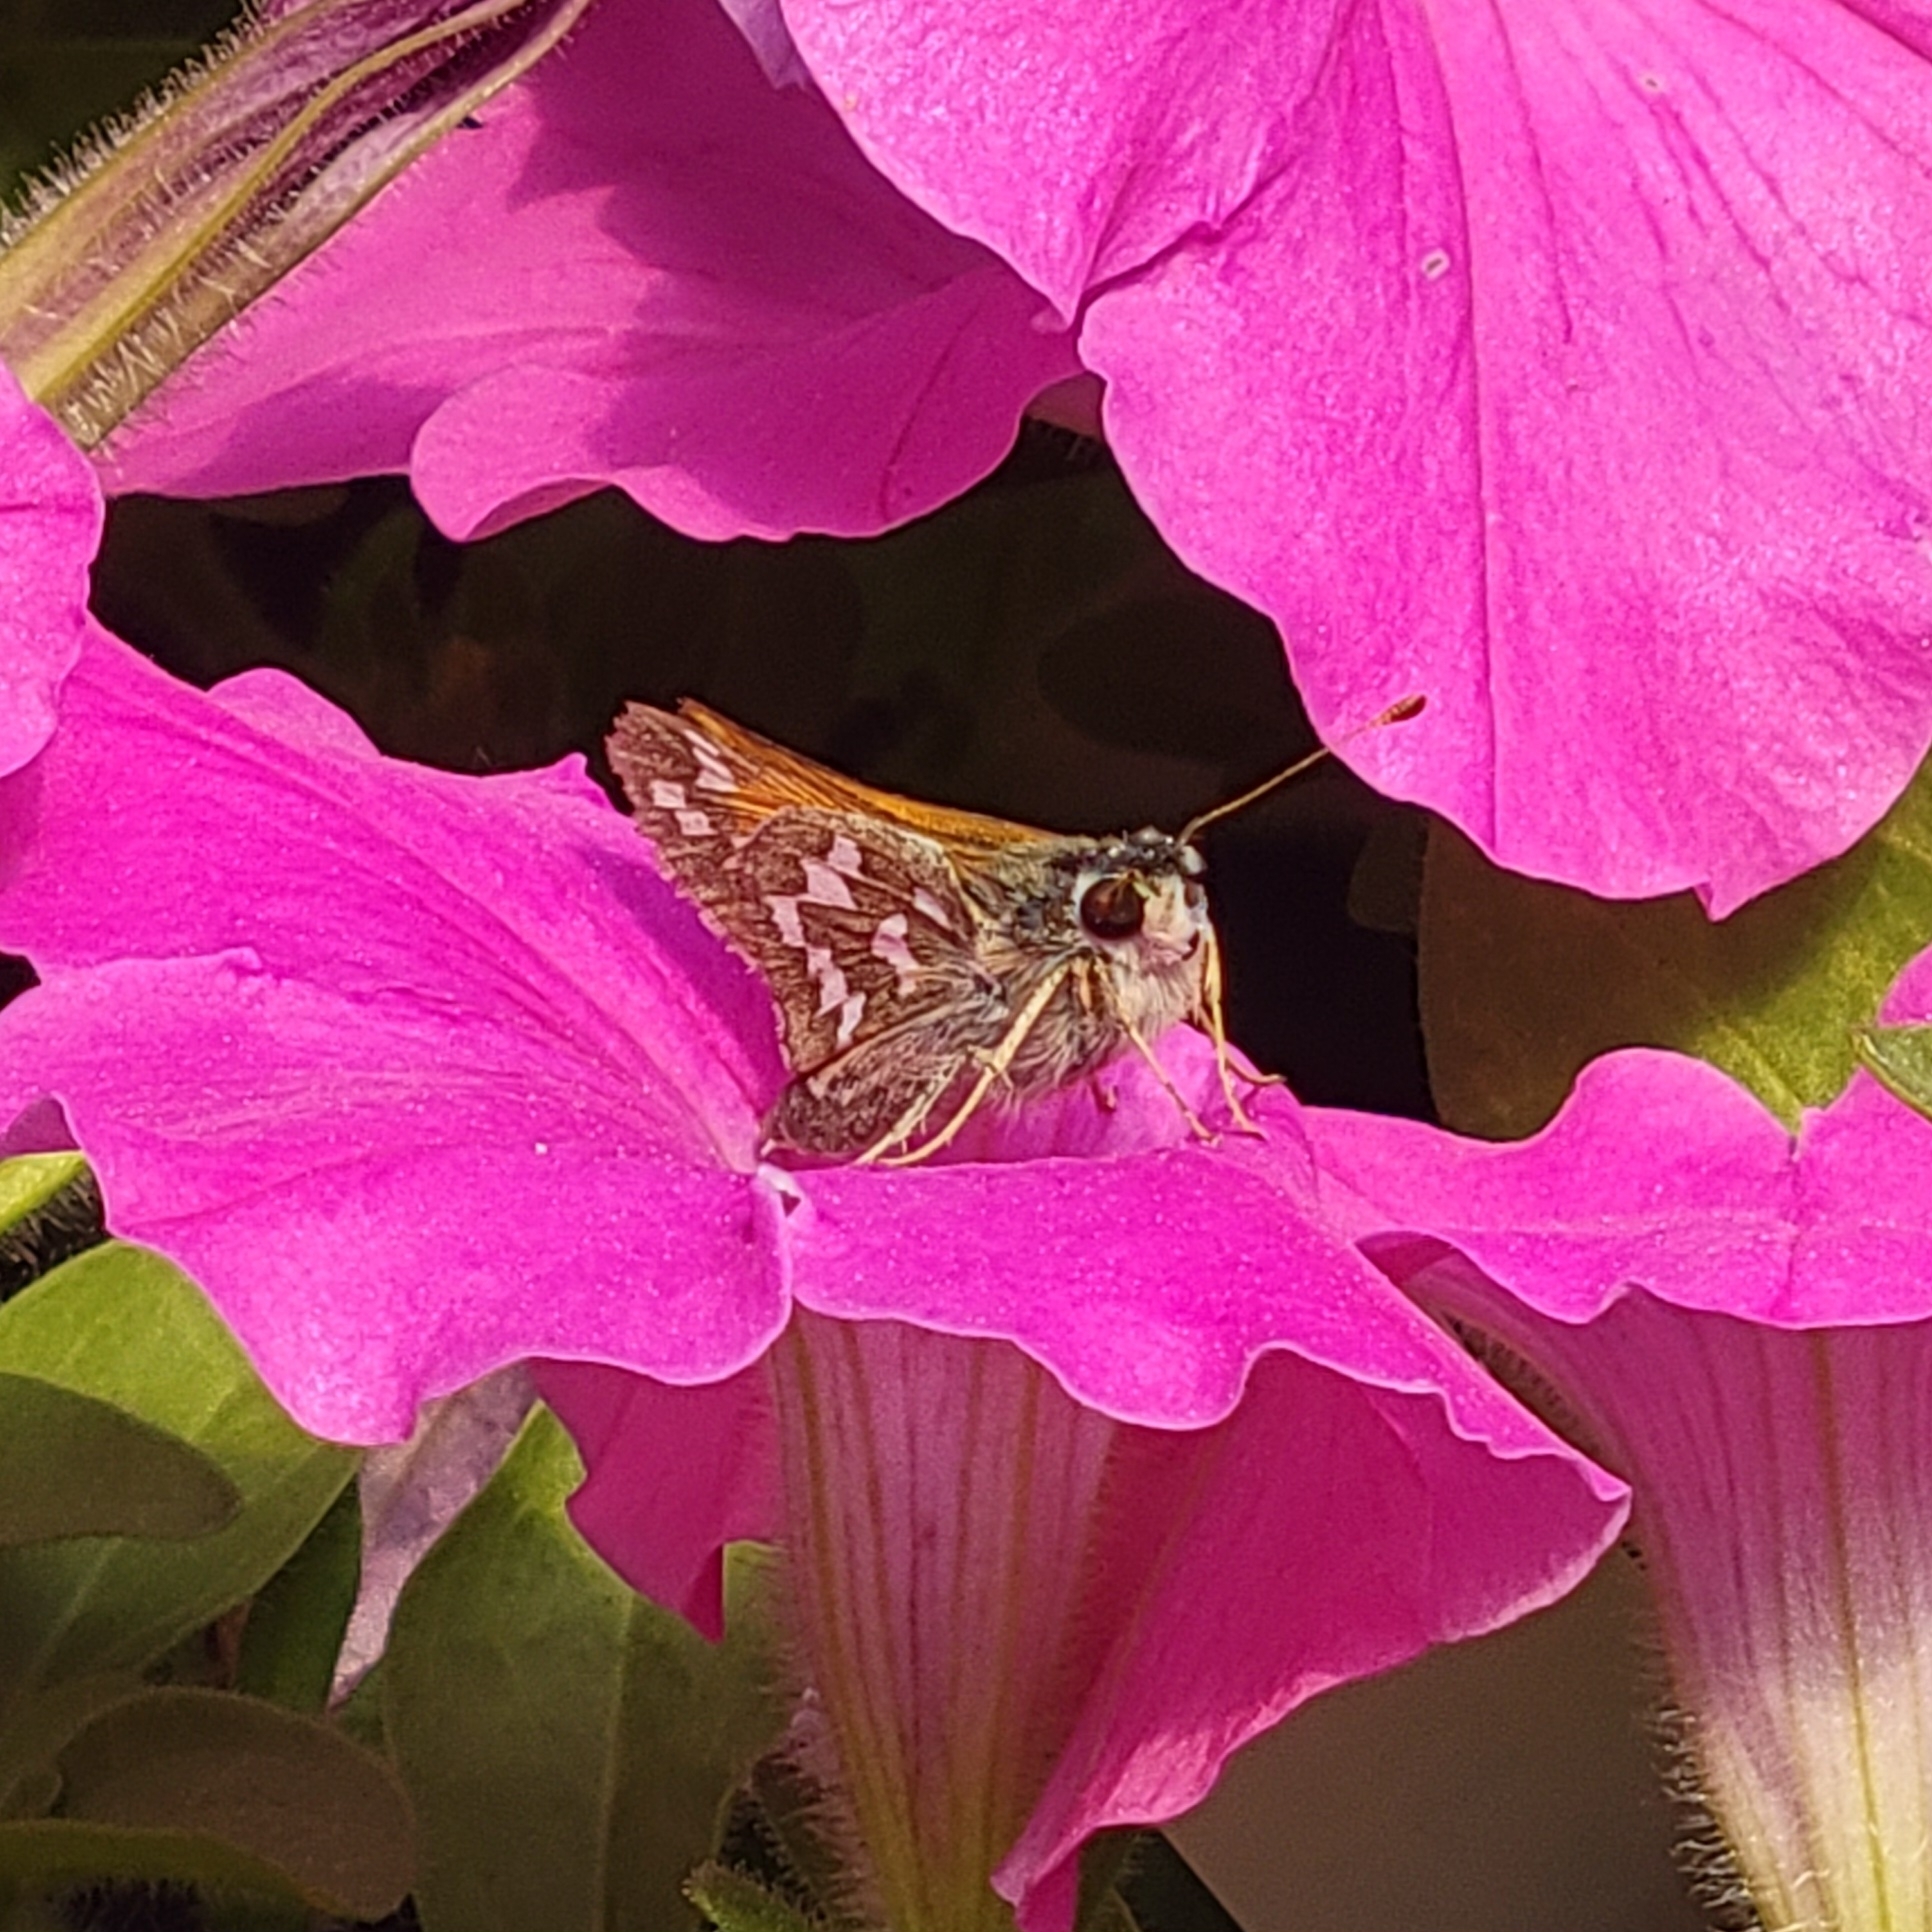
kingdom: Animalia
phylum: Arthropoda
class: Insecta
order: Lepidoptera
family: Hesperiidae
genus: Hesperia
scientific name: Hesperia juba
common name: Juba skipper
